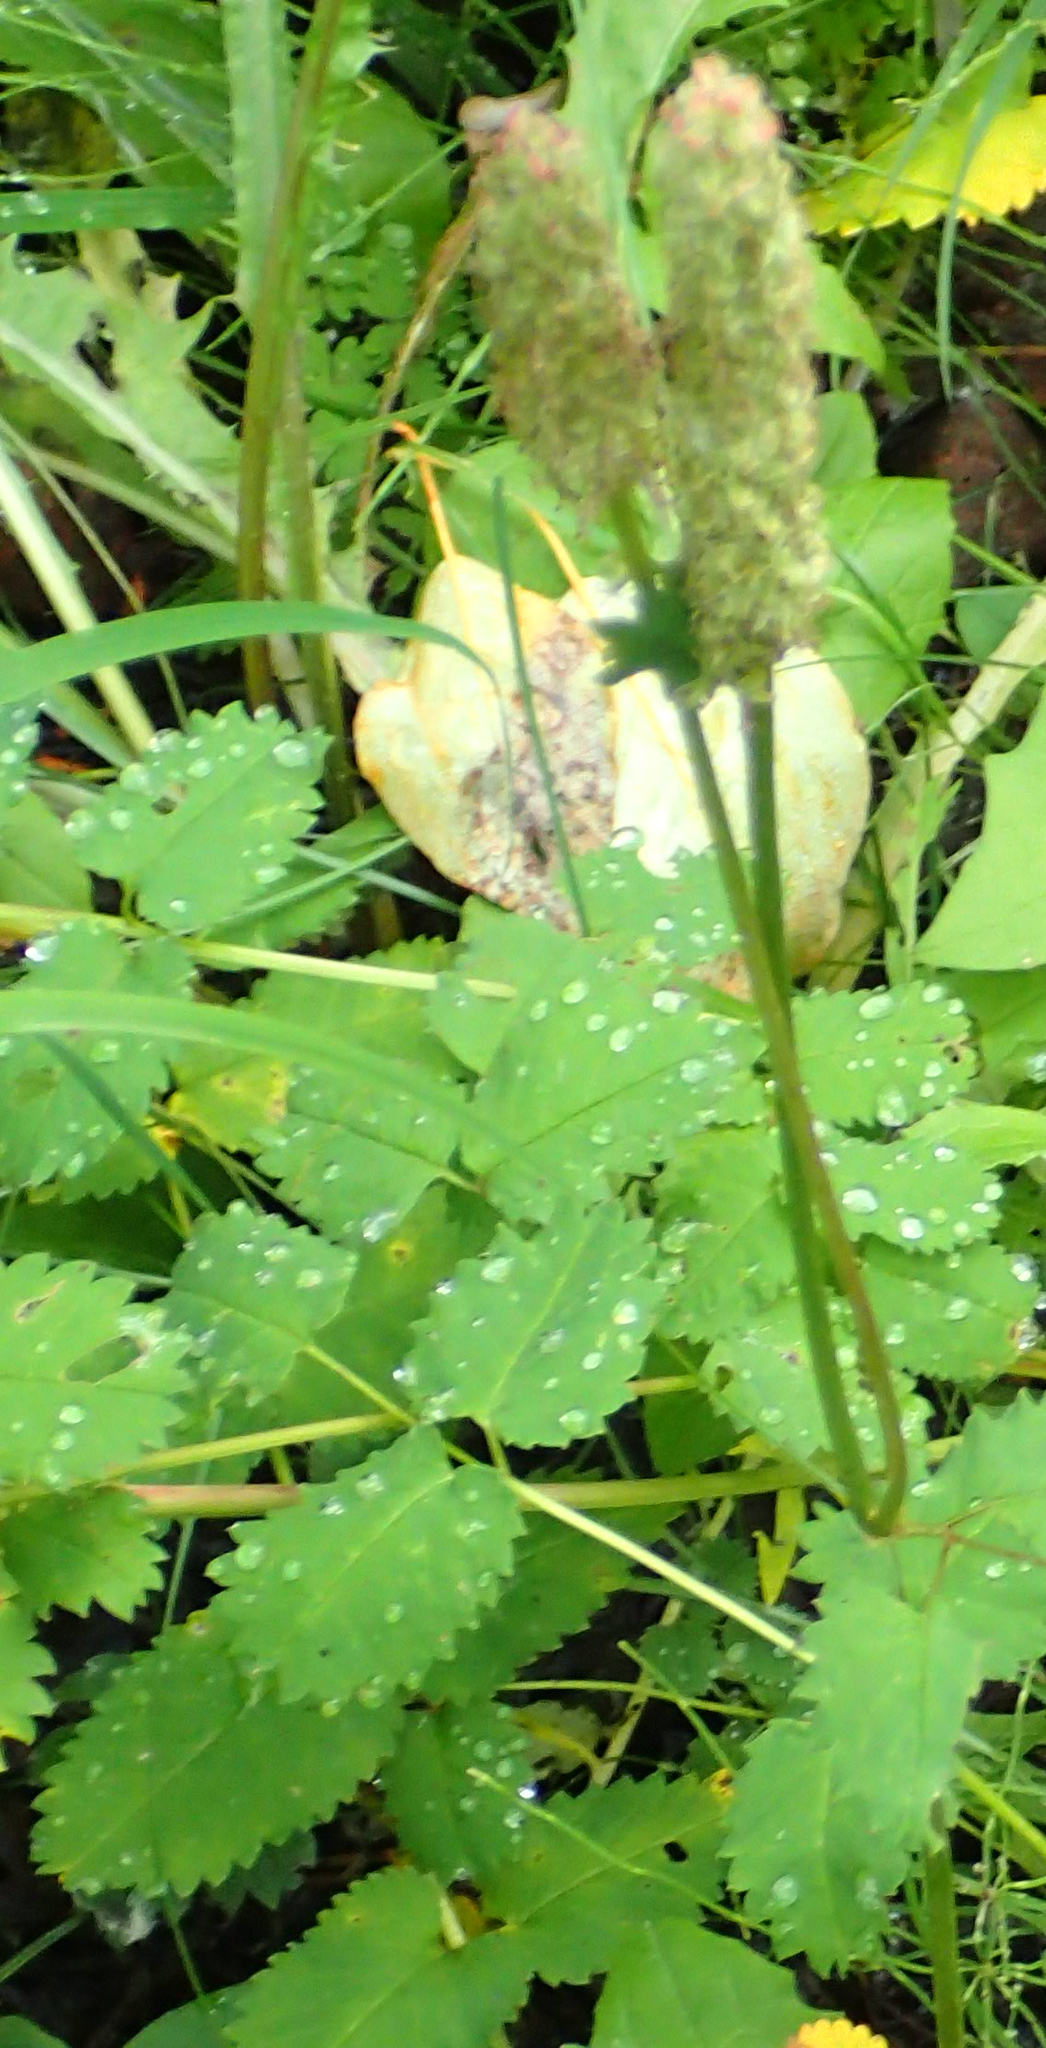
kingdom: Plantae
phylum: Tracheophyta
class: Magnoliopsida
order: Rosales
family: Rosaceae
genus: Sanguisorba
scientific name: Sanguisorba stipulata
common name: Sitka burnet
